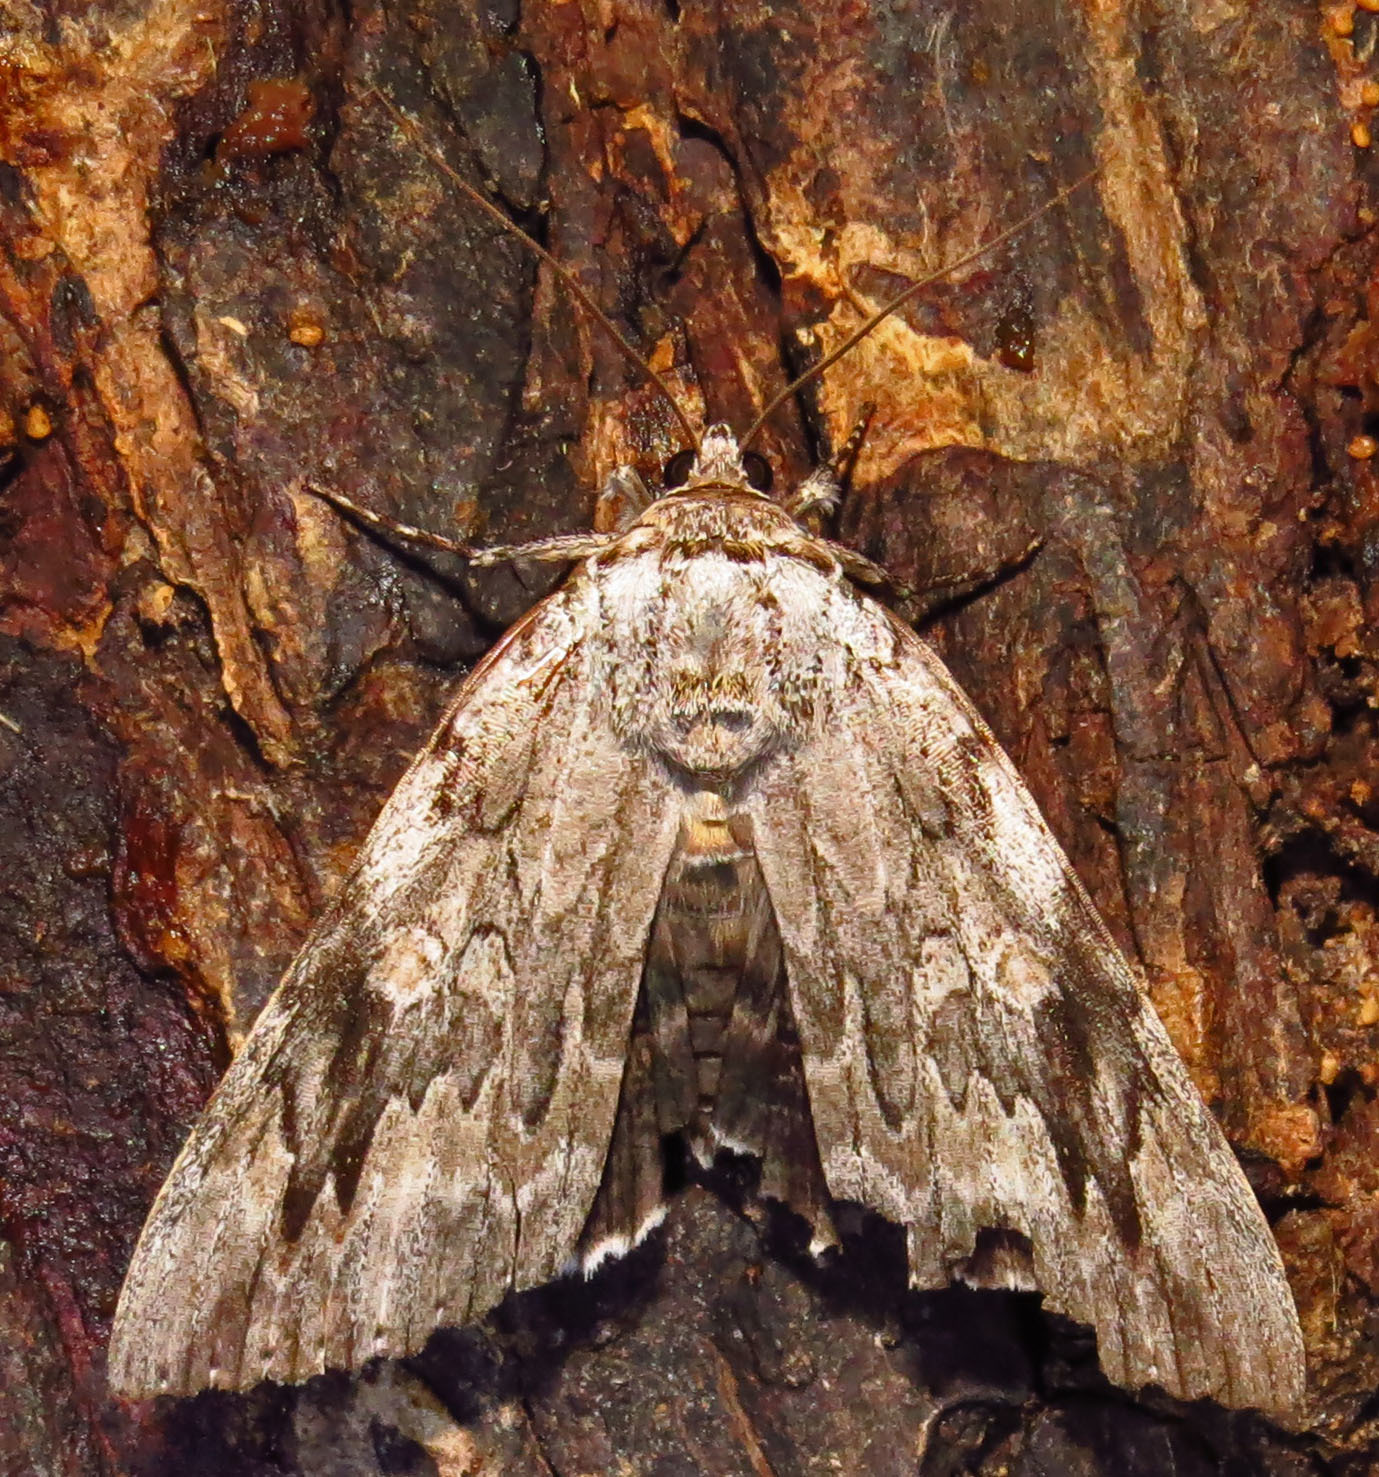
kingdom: Animalia
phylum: Arthropoda
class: Insecta
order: Lepidoptera
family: Erebidae
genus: Catocala
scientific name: Catocala maestosa
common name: Sad underwing
